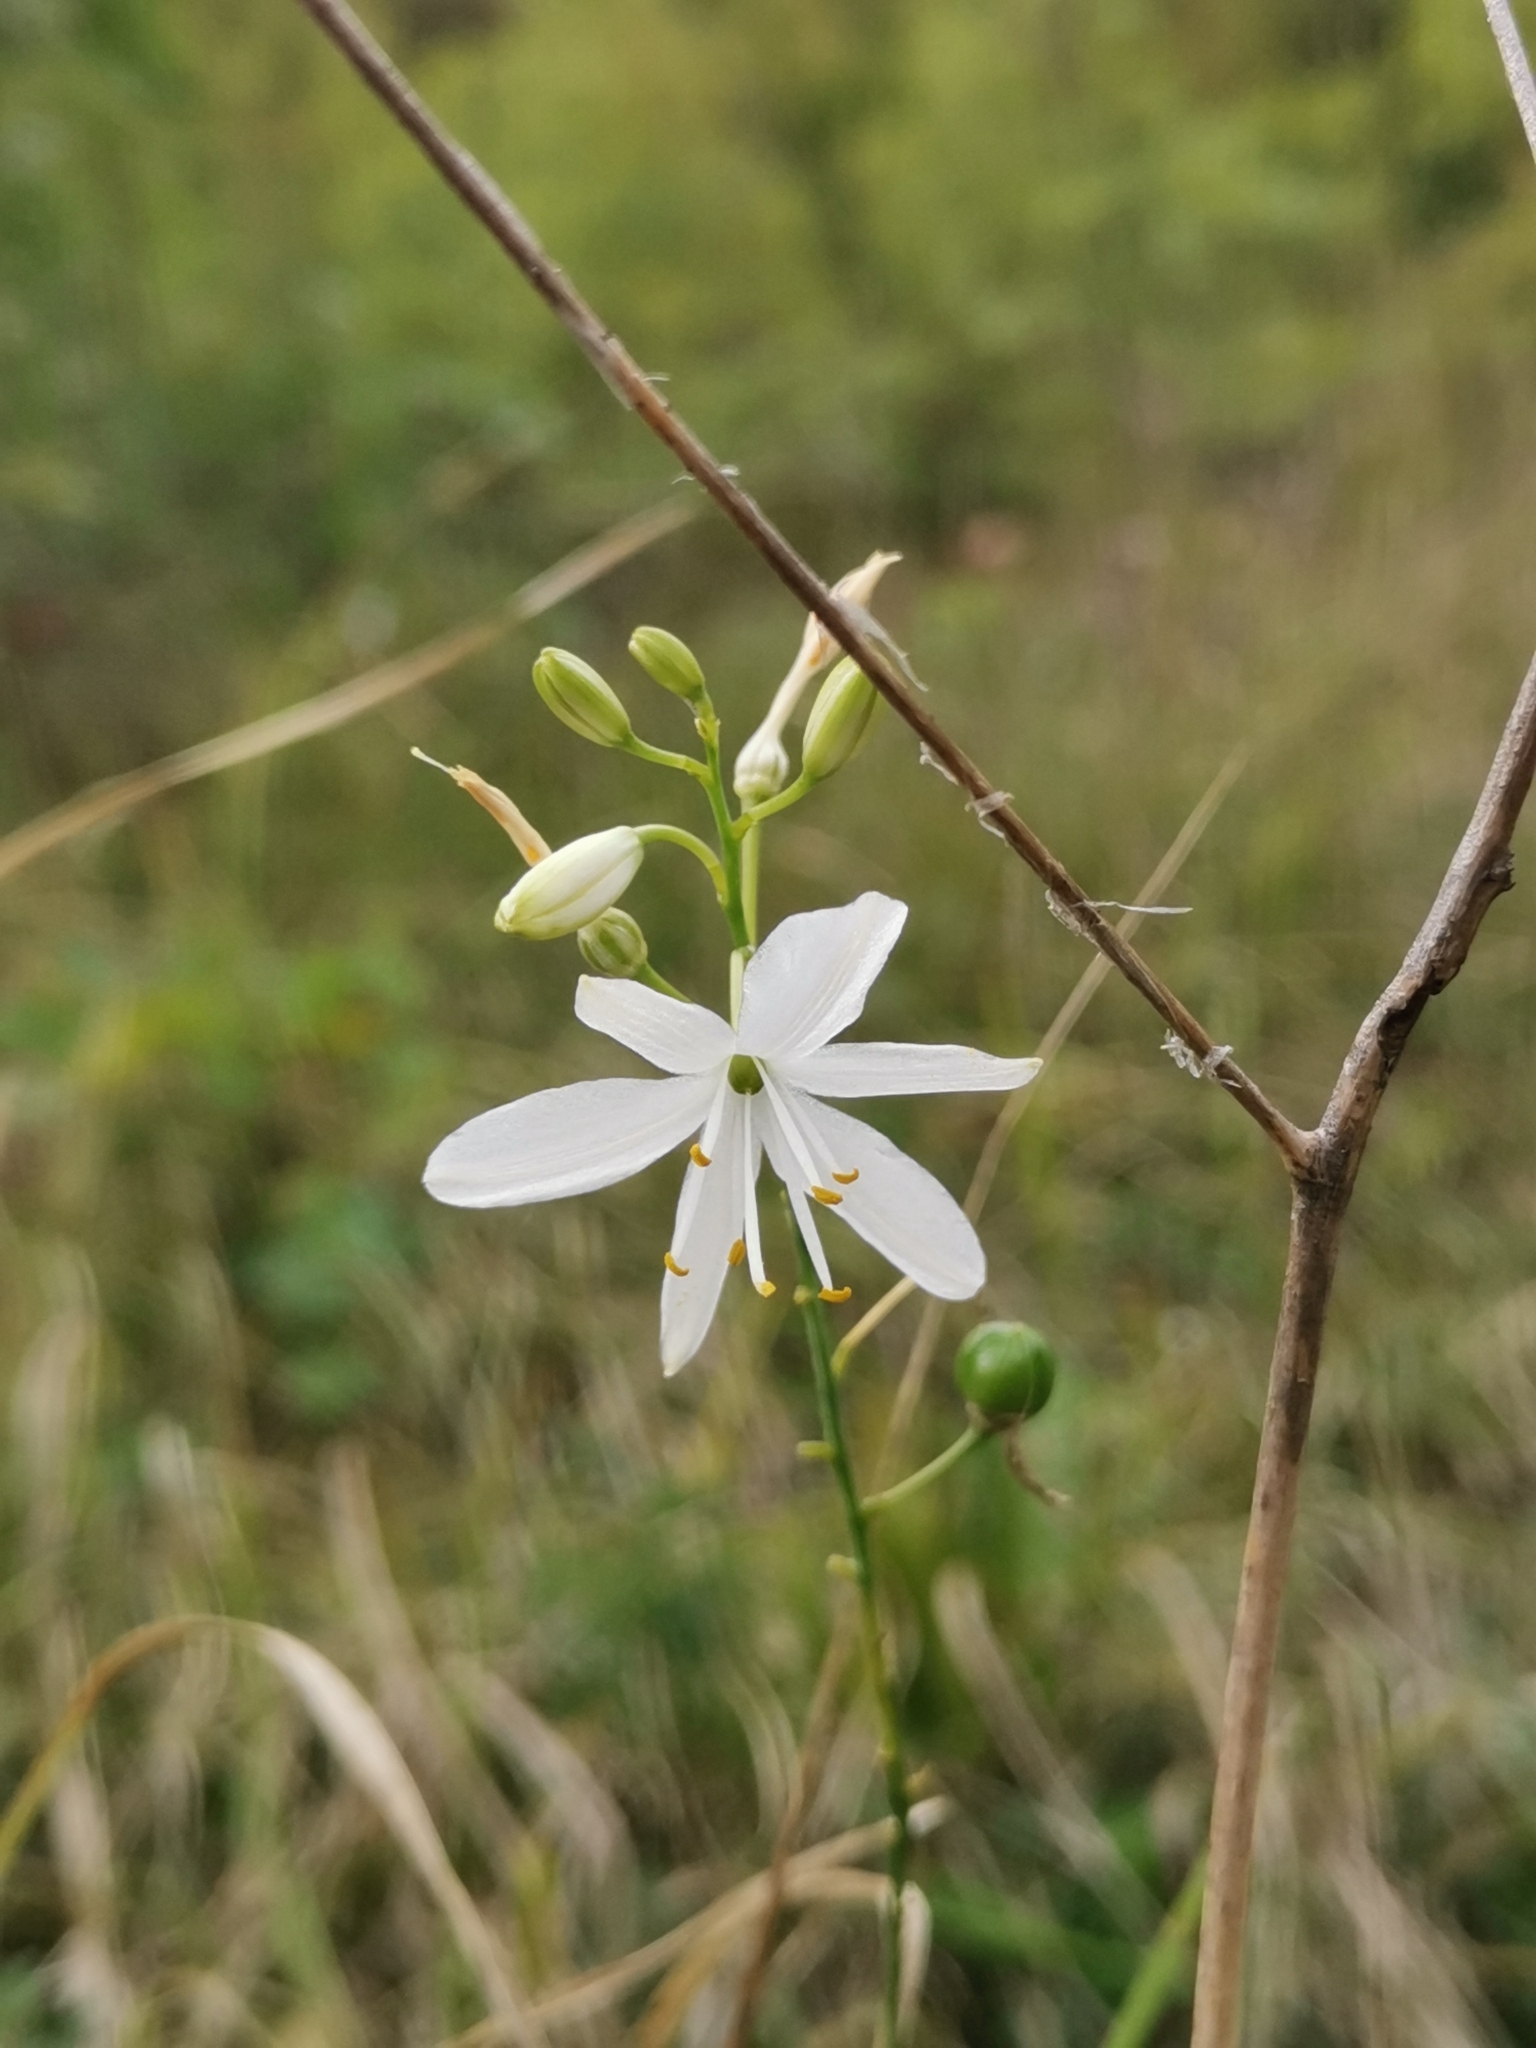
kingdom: Plantae
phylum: Tracheophyta
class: Liliopsida
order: Asparagales
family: Asparagaceae
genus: Anthericum
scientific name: Anthericum ramosum
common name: Branched st. bernard's-lily
